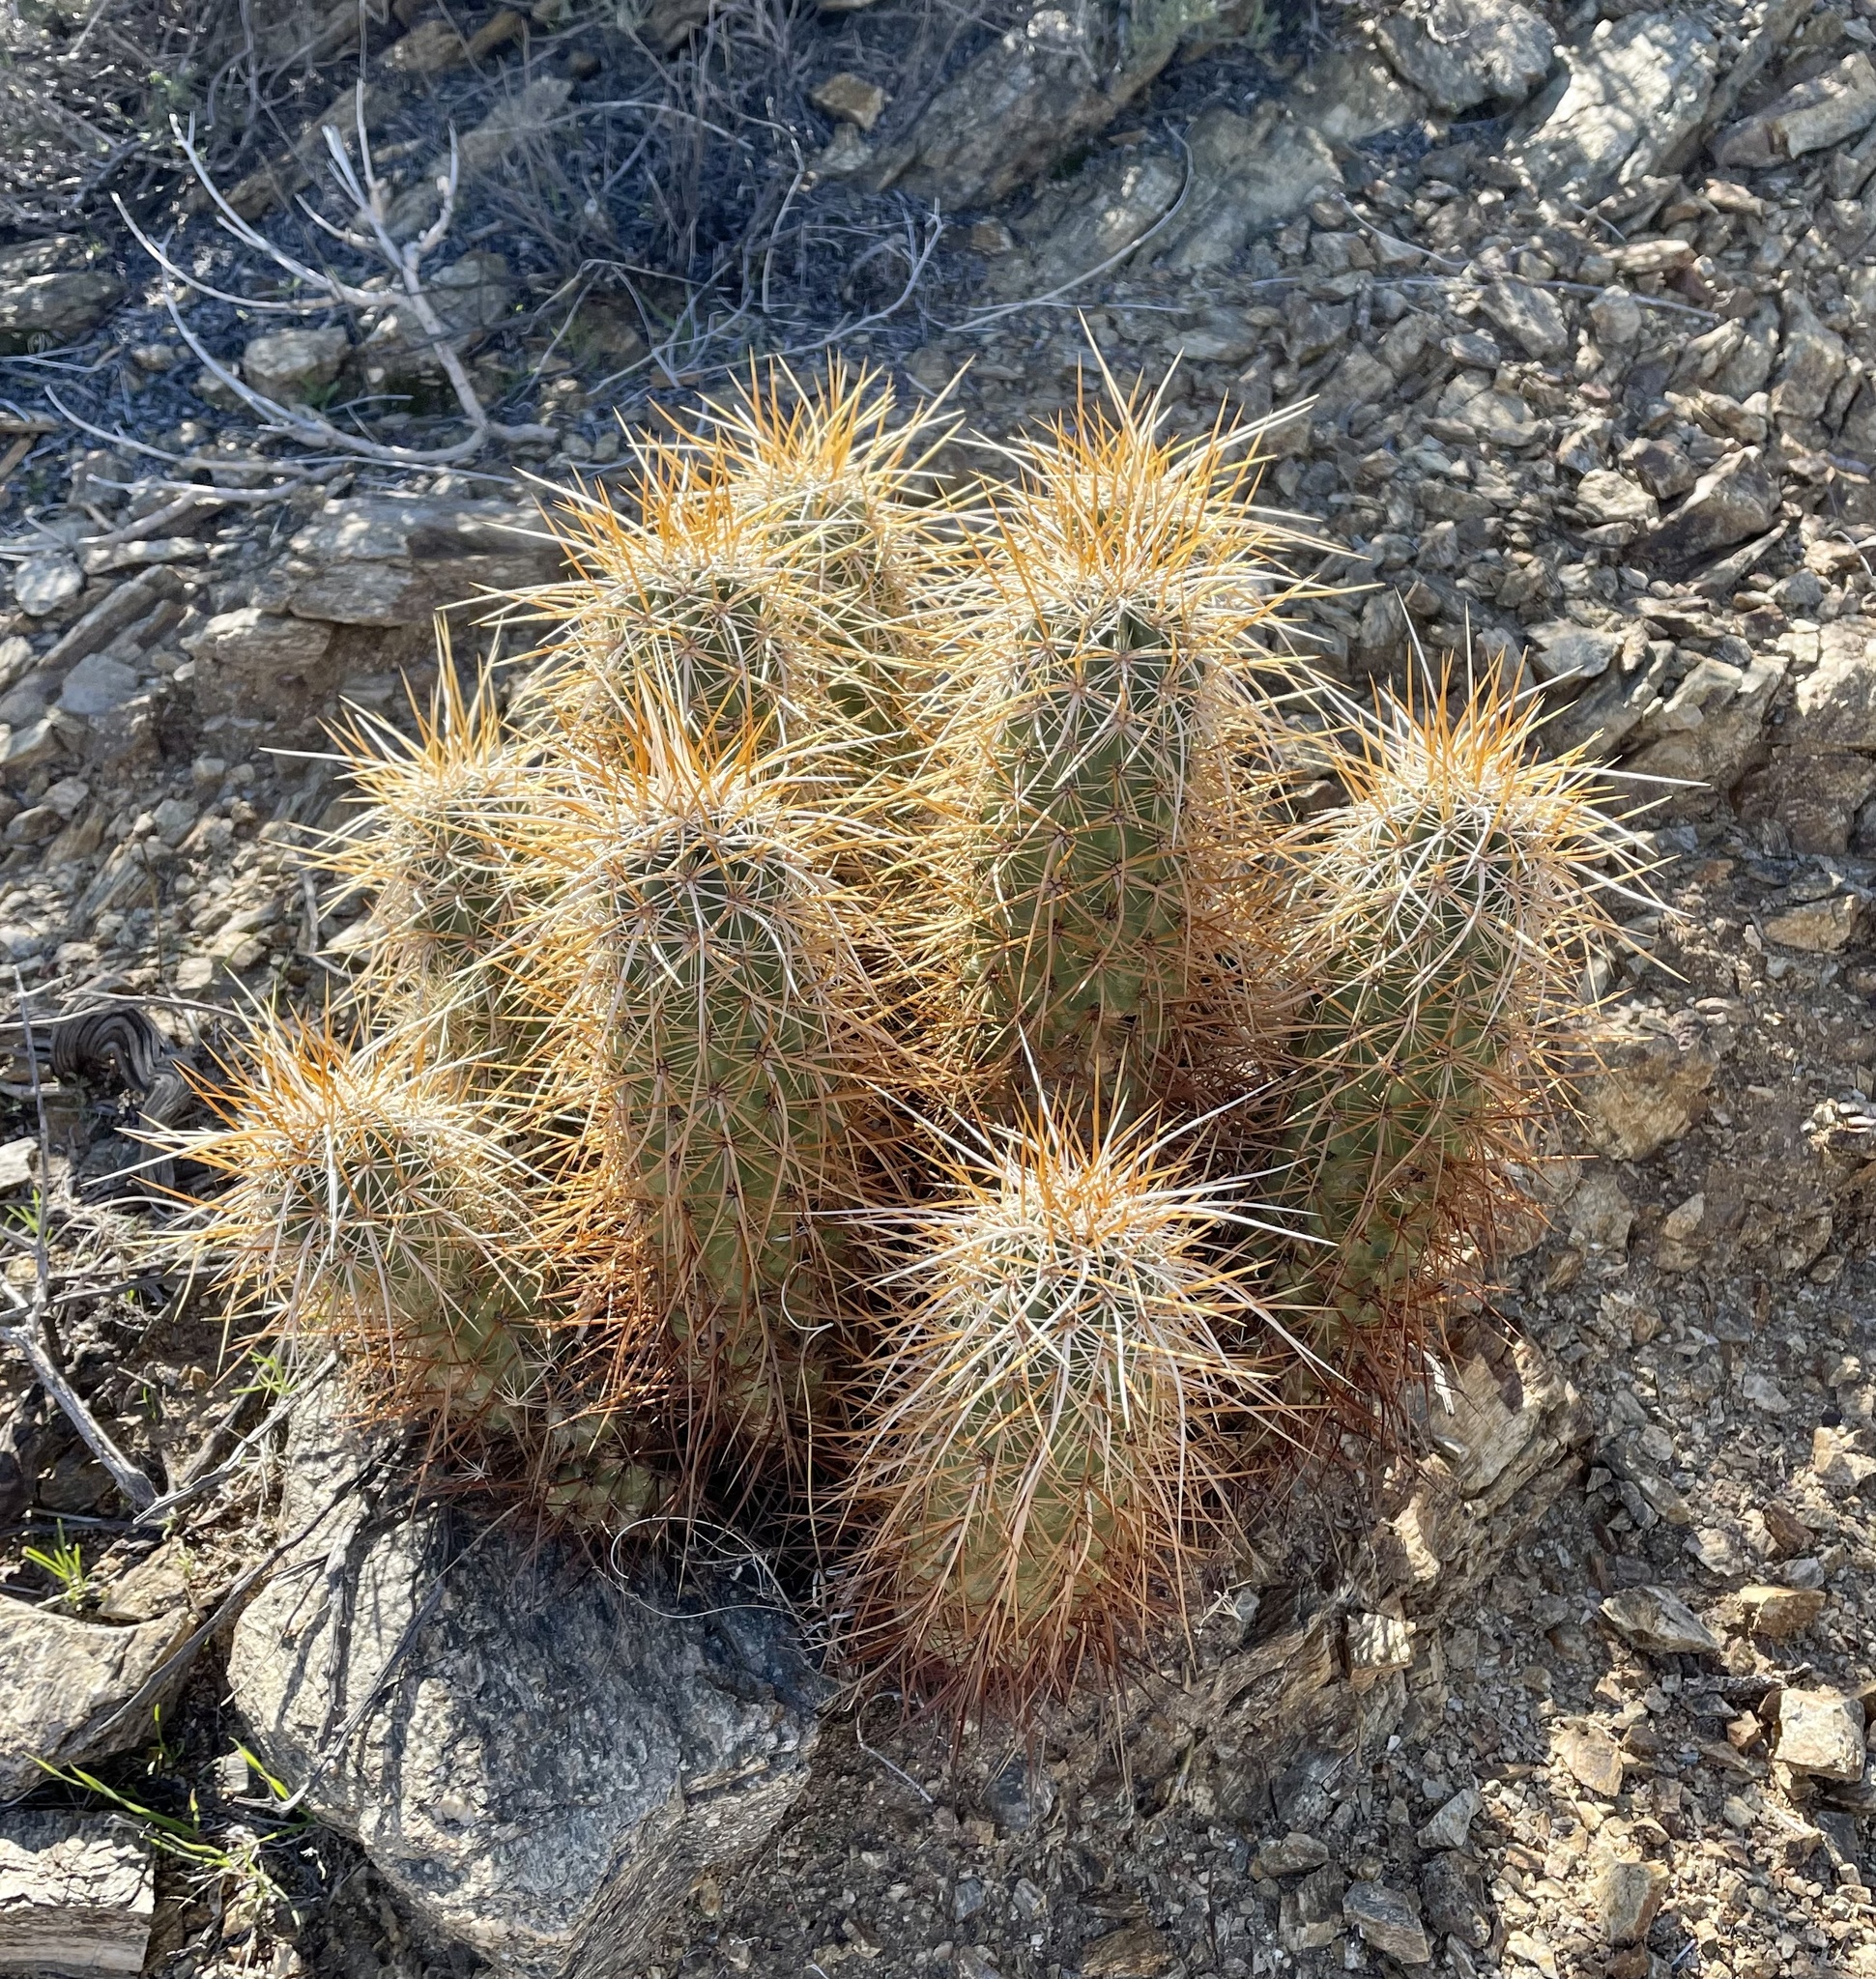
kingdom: Plantae
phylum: Tracheophyta
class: Magnoliopsida
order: Caryophyllales
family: Cactaceae
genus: Echinocereus
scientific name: Echinocereus engelmannii
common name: Engelmann's hedgehog cactus
